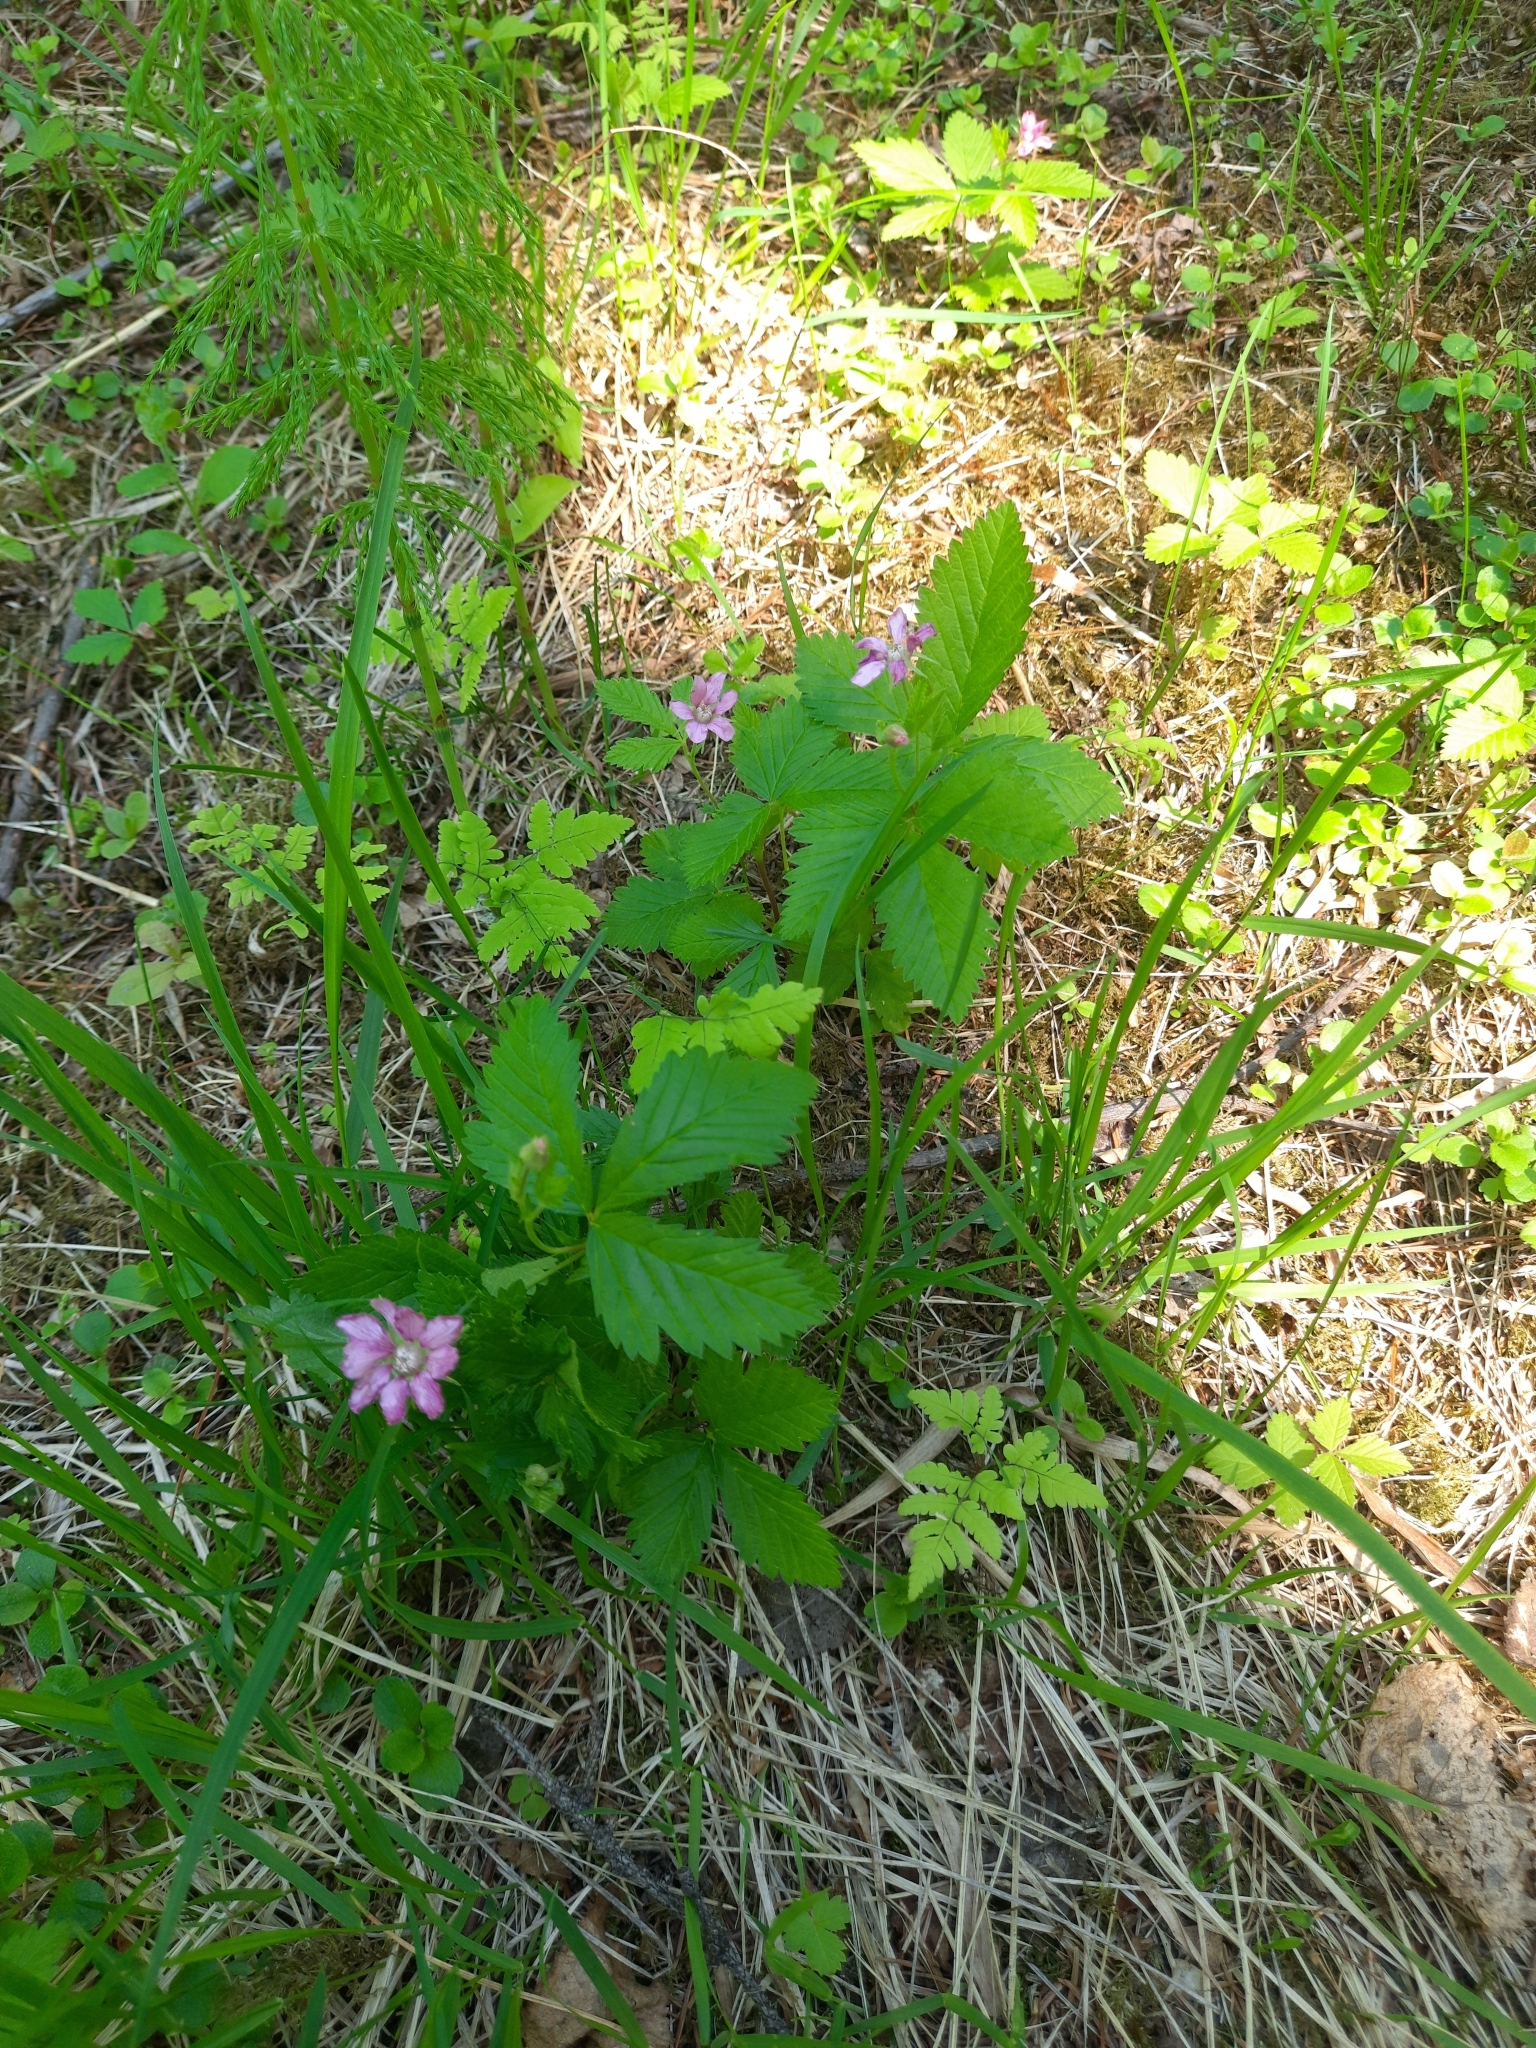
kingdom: Plantae
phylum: Tracheophyta
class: Magnoliopsida
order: Rosales
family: Rosaceae
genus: Rubus
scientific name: Rubus arcticus
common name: Arctic bramble
